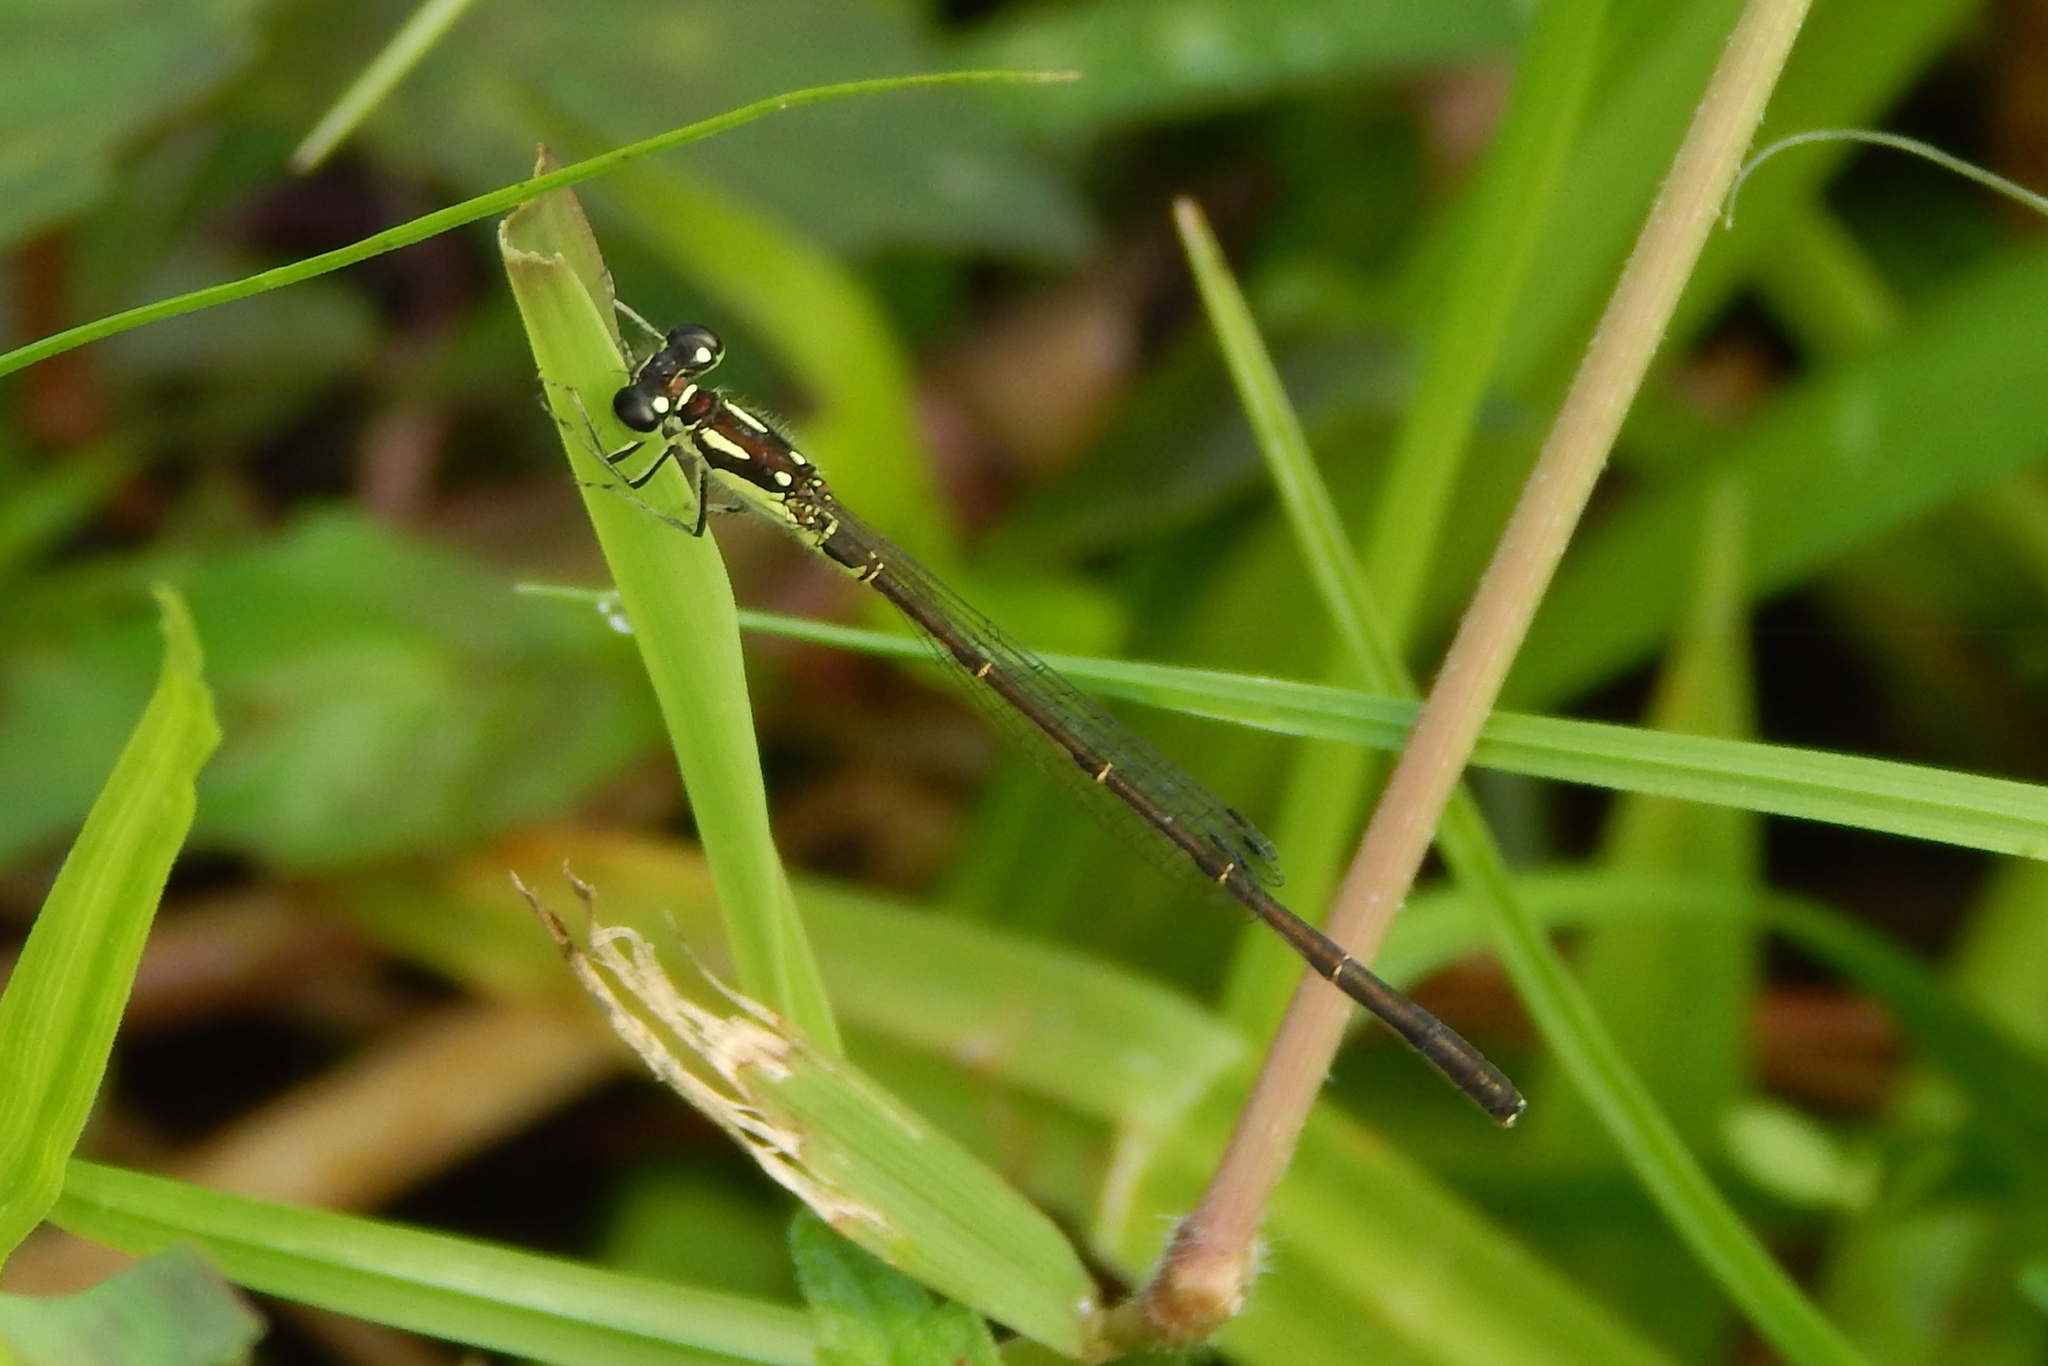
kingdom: Animalia
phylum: Arthropoda
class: Insecta
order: Odonata
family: Coenagrionidae
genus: Ischnura
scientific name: Ischnura posita
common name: Fragile forktail
